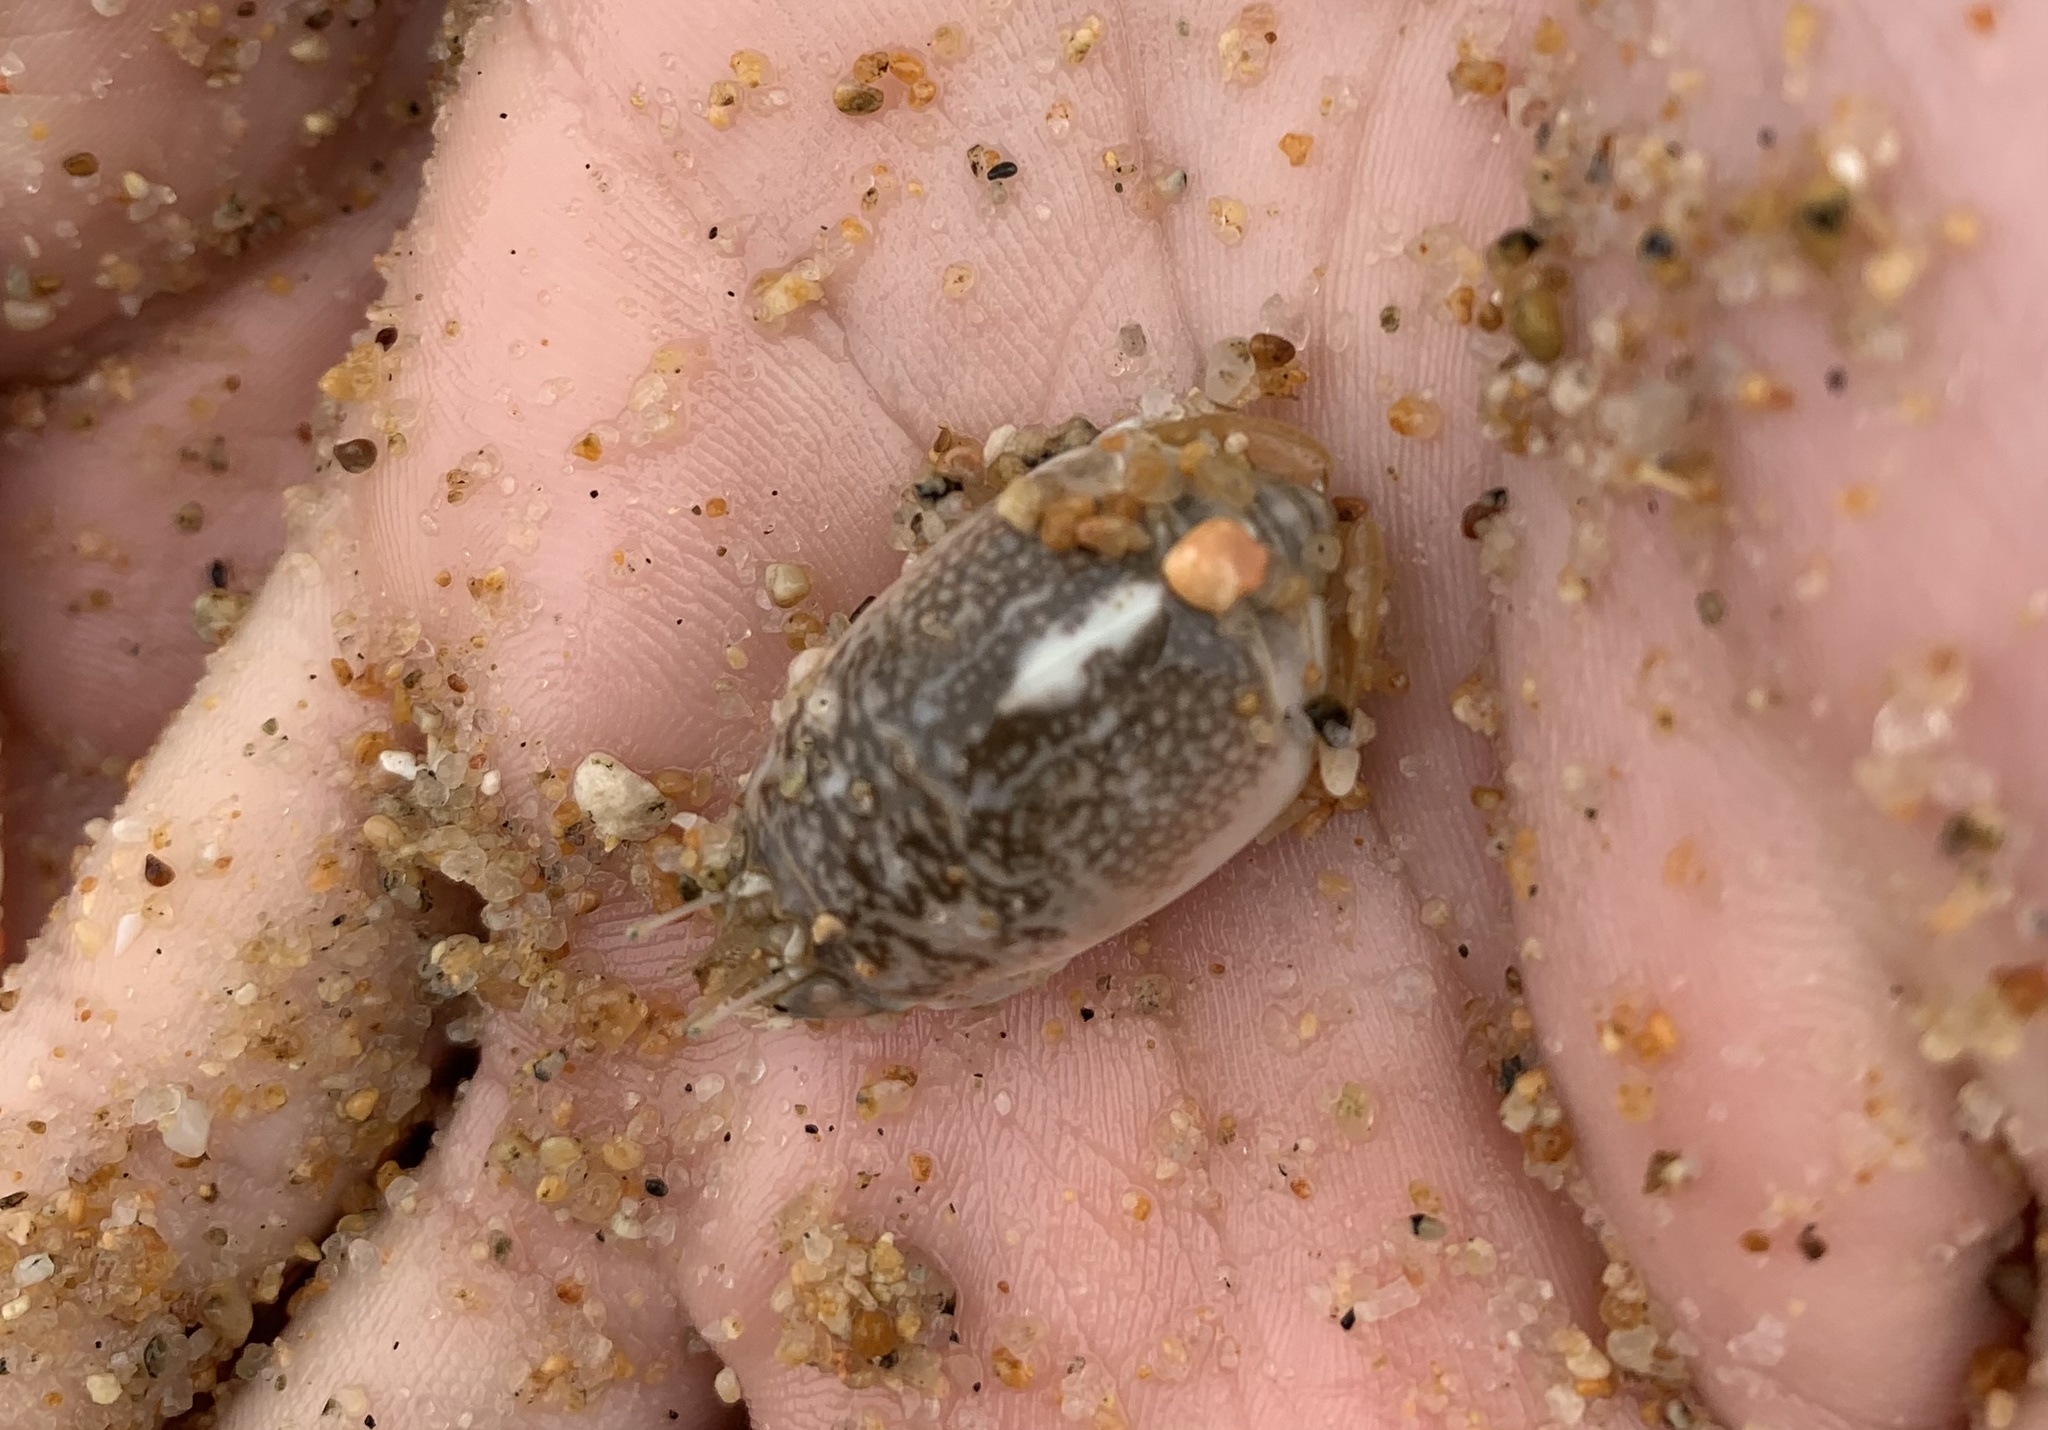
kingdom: Animalia
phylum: Arthropoda
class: Malacostraca
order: Decapoda
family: Hippidae
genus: Emerita
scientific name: Emerita analoga
